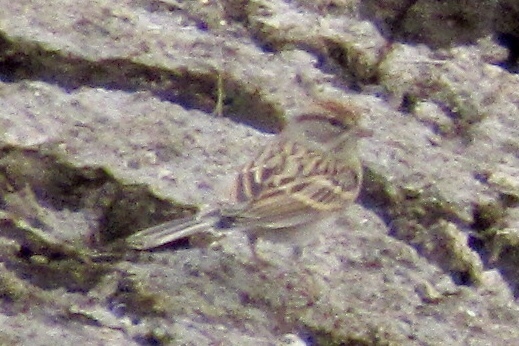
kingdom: Animalia
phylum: Chordata
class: Aves
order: Passeriformes
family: Passerellidae
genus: Spizella
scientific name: Spizella passerina
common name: Chipping sparrow
